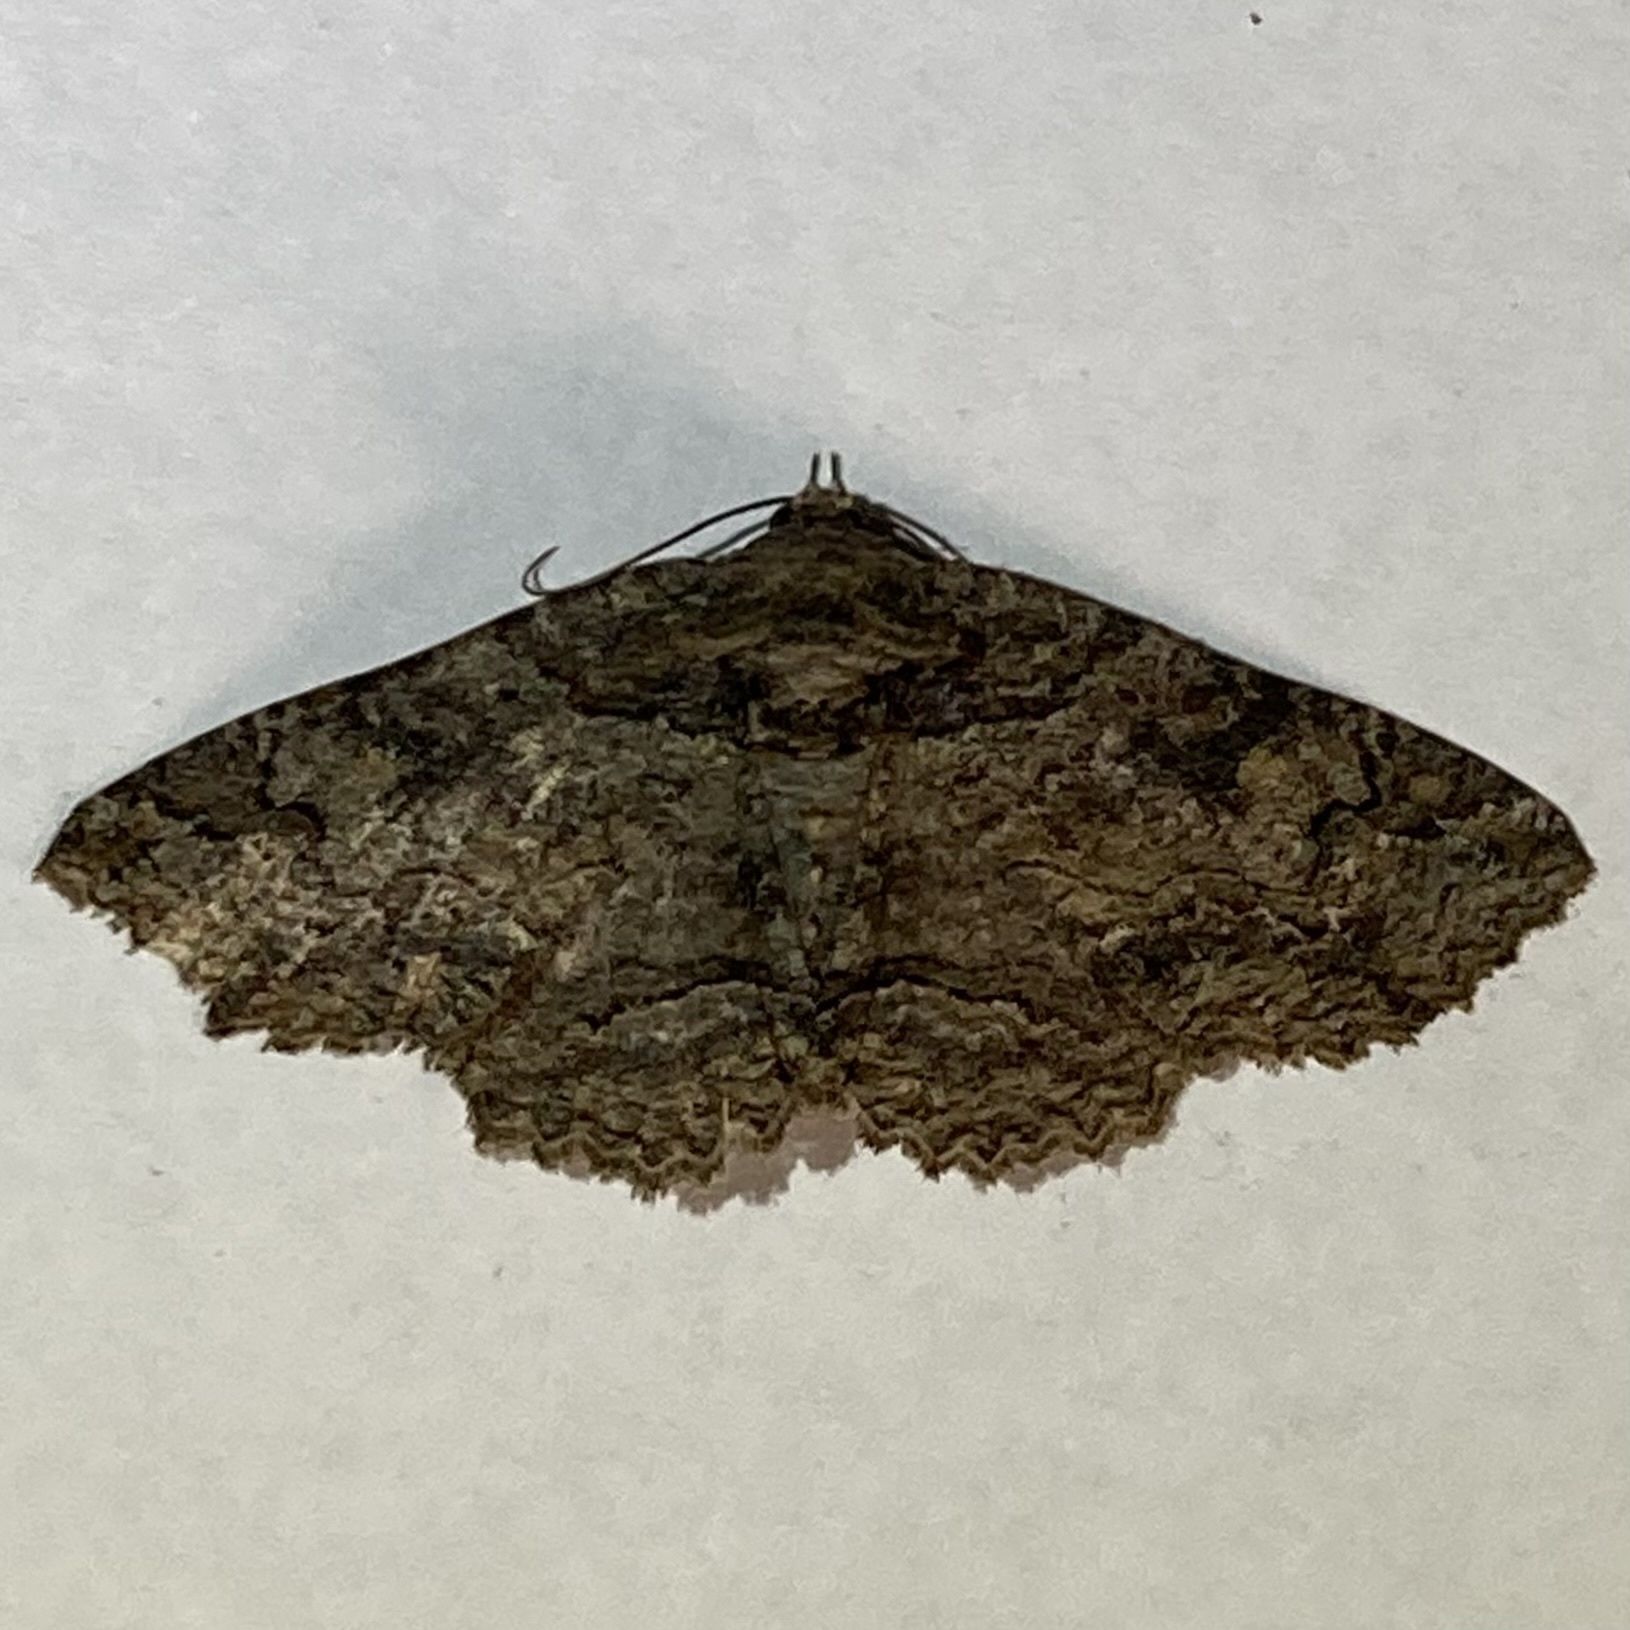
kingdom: Animalia
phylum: Arthropoda
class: Insecta
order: Lepidoptera
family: Erebidae
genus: Zale
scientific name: Zale galbanata
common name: Maple zale
